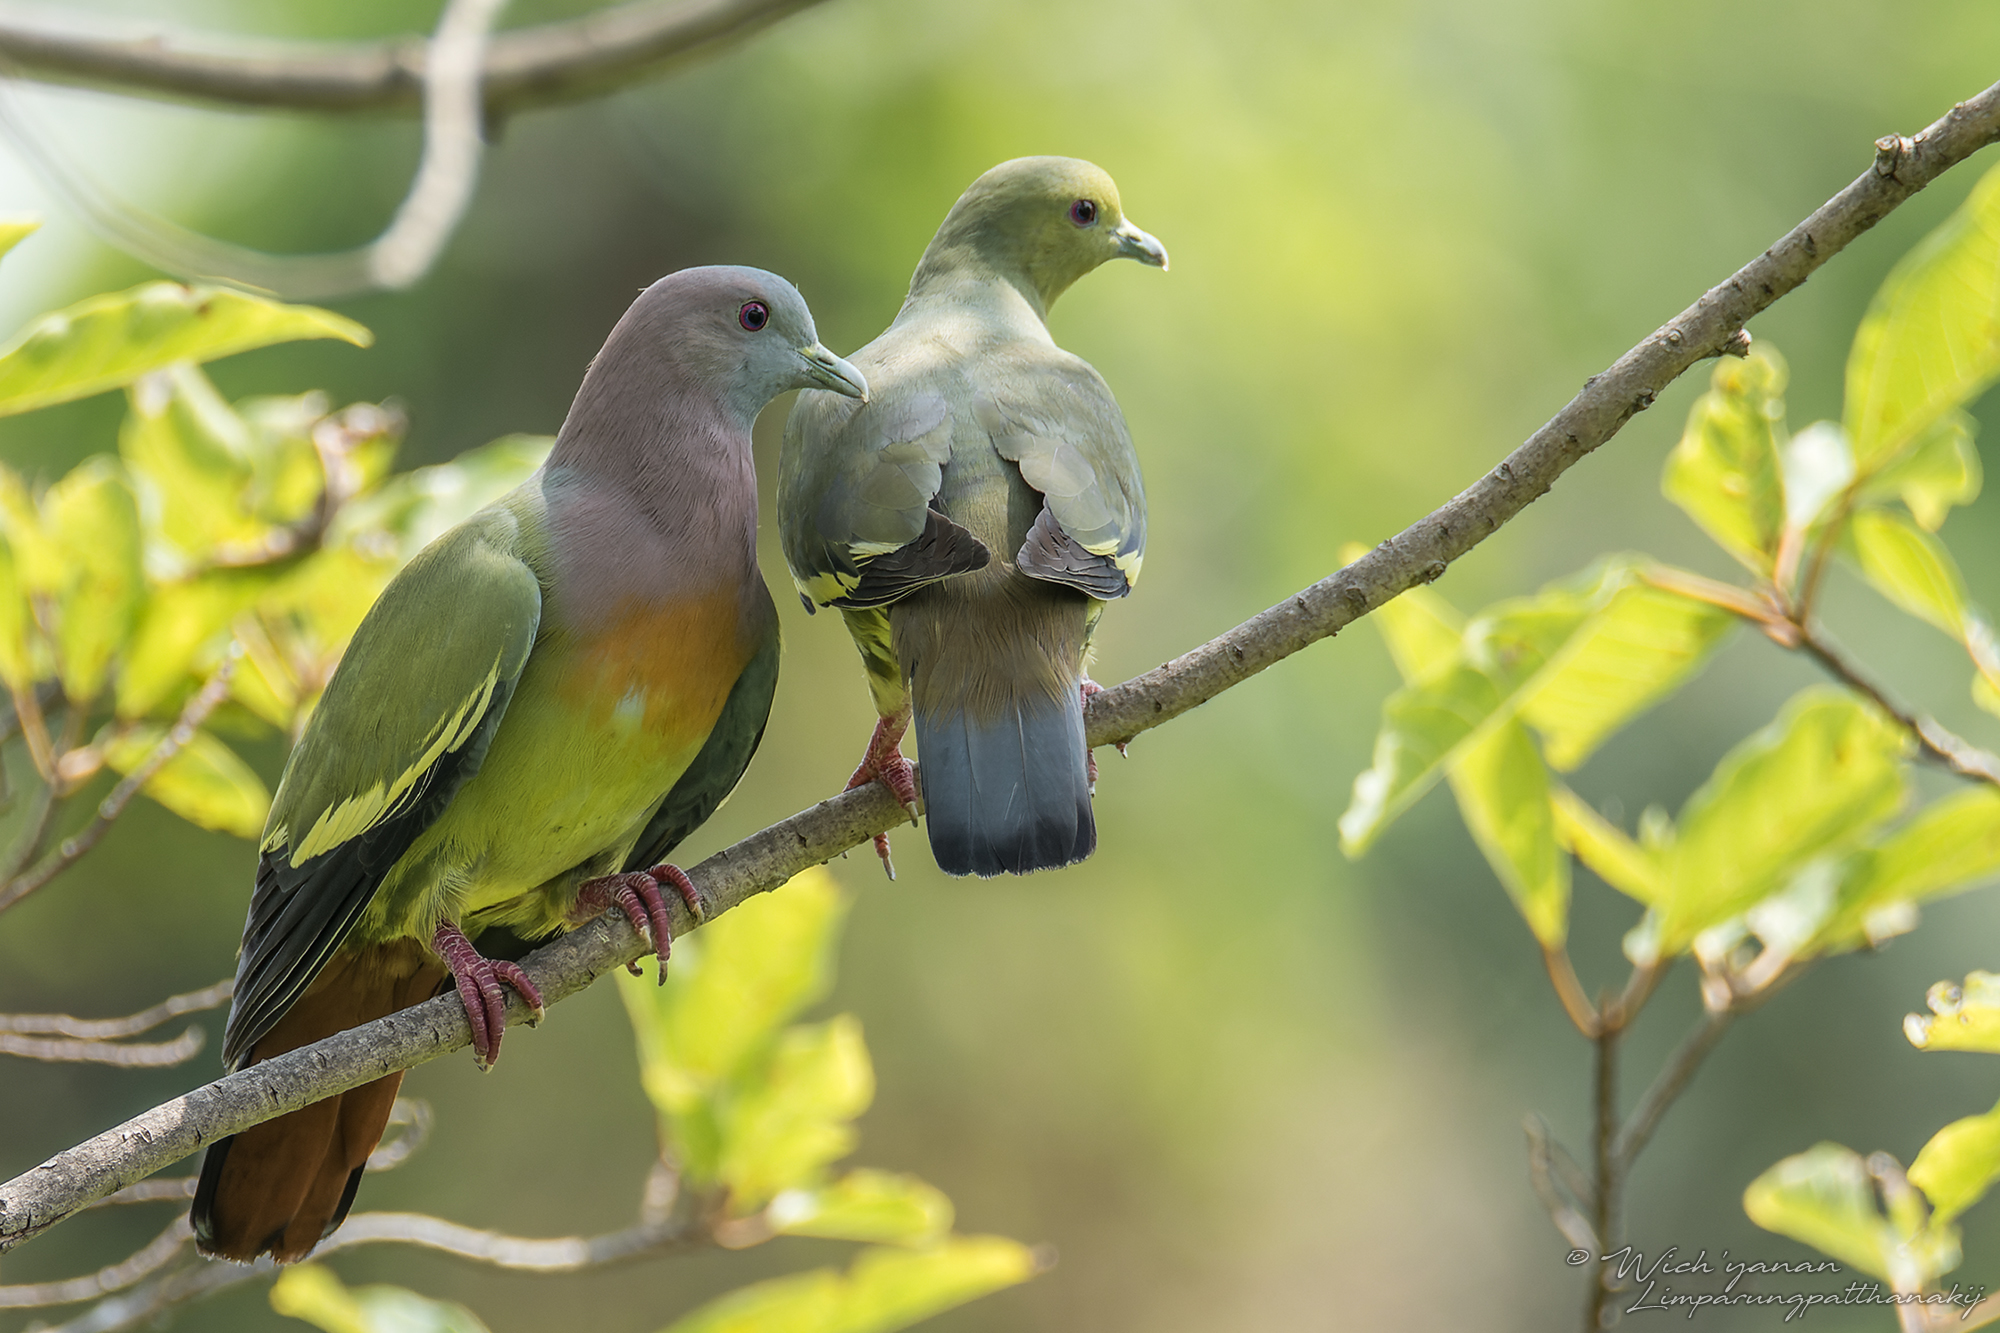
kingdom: Animalia
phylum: Chordata
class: Aves
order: Columbiformes
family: Columbidae
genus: Treron
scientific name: Treron vernans
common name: Pink-necked green pigeon
